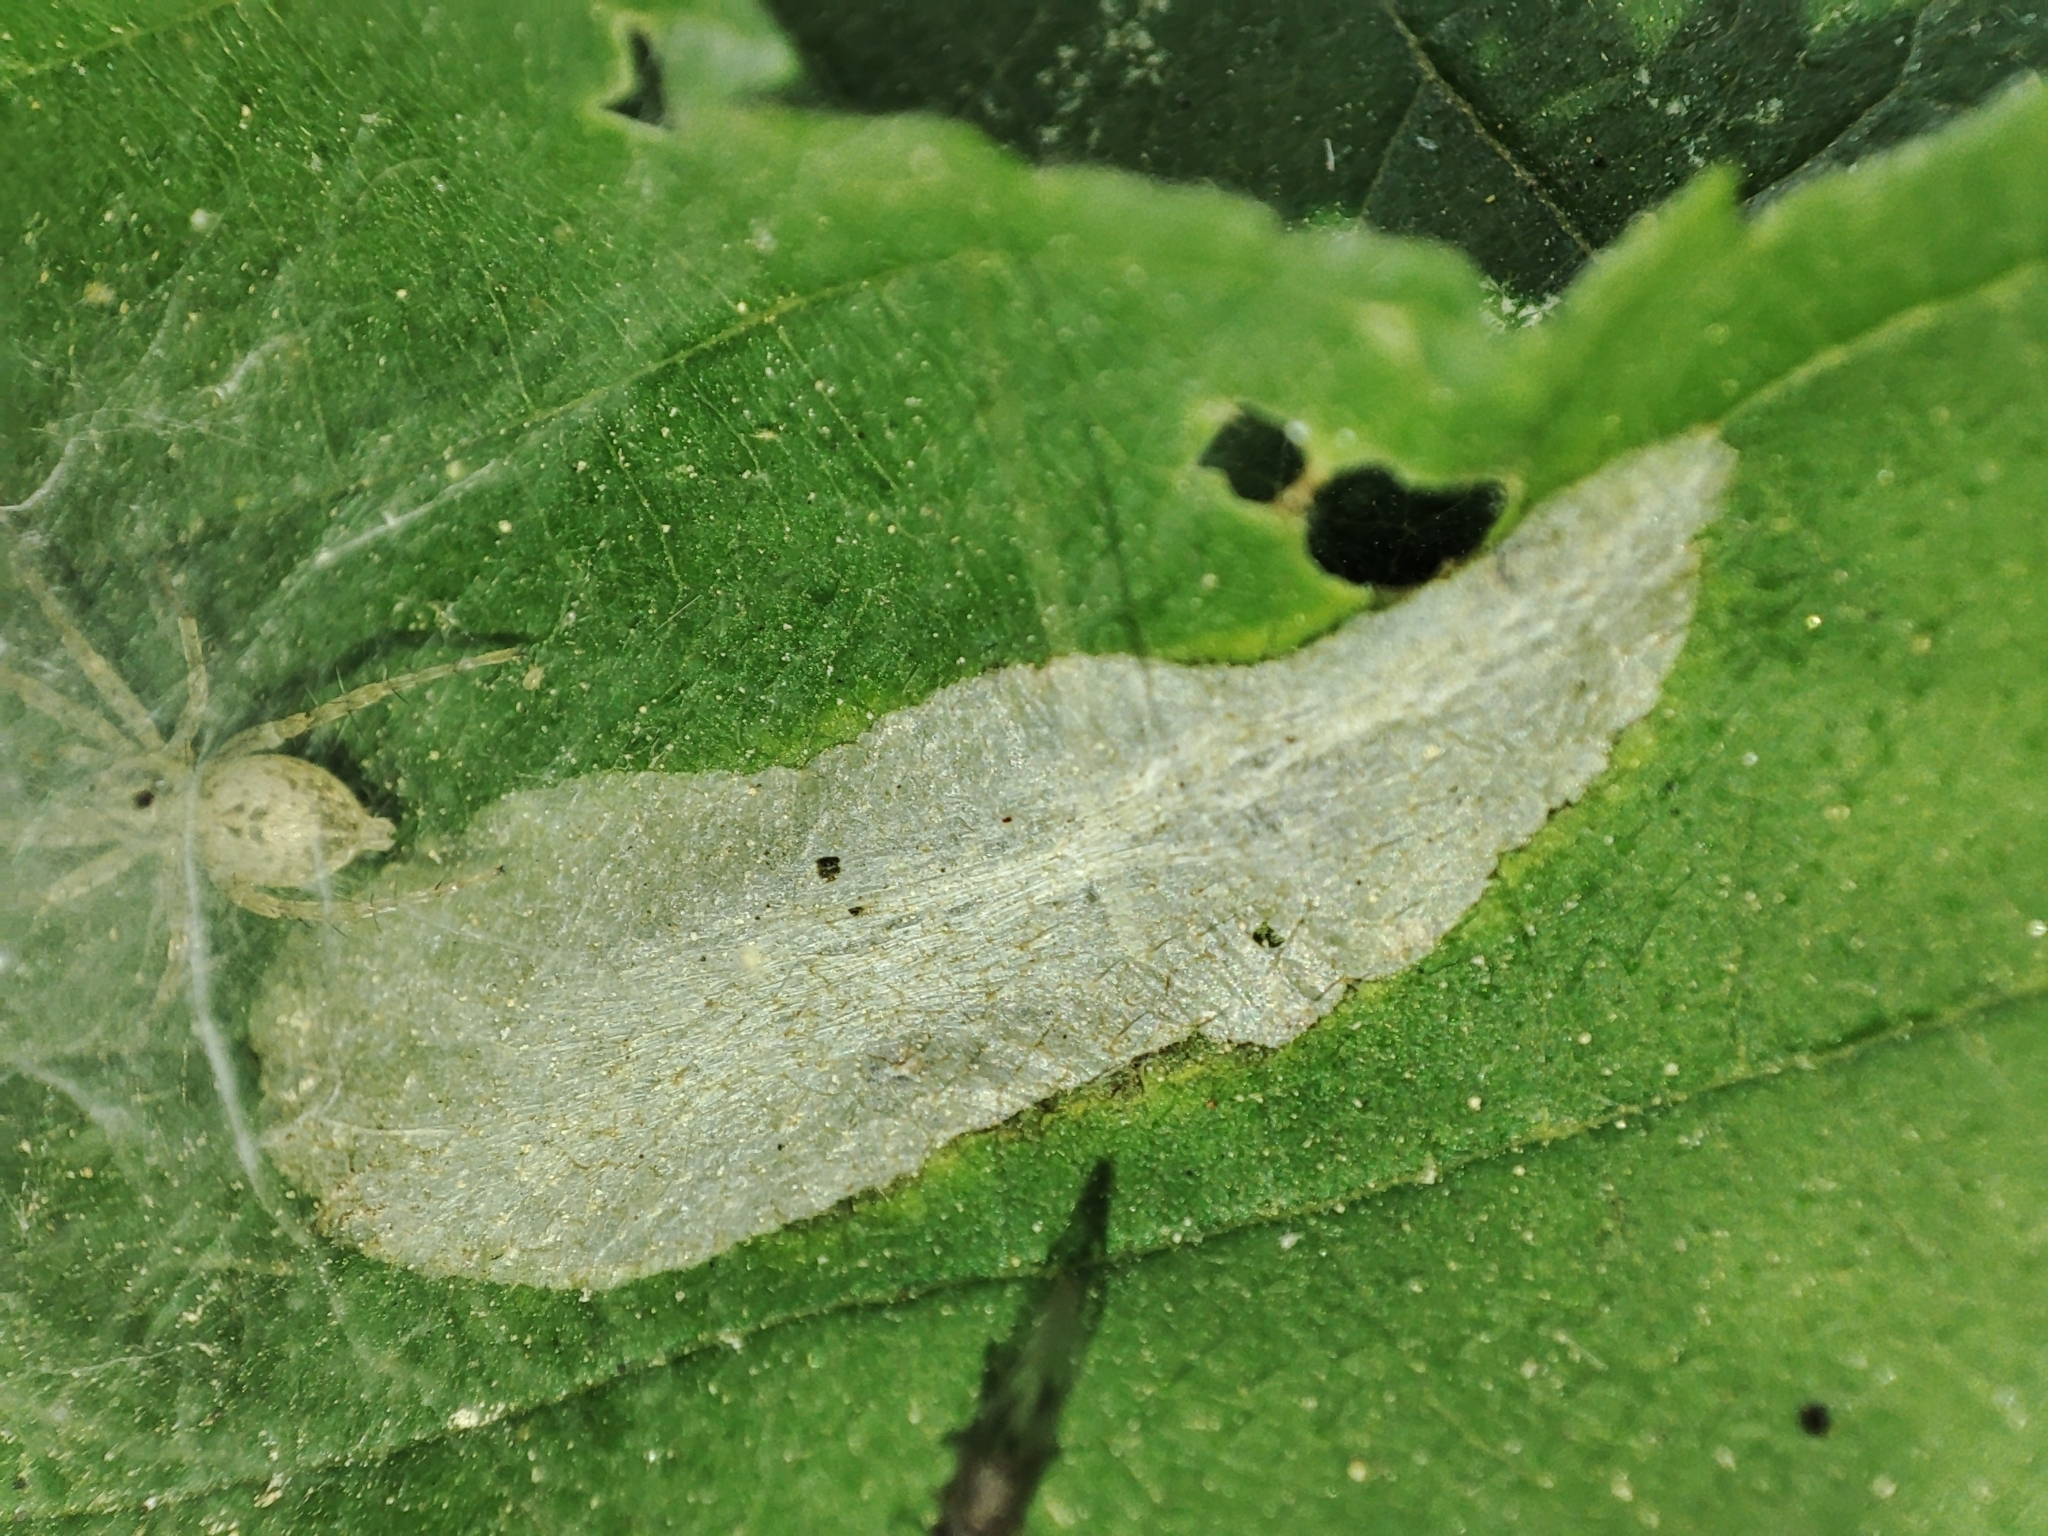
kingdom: Animalia
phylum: Arthropoda
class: Arachnida
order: Araneae
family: Anyphaenidae
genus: Anyphaena
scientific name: Anyphaena accentuata
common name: Buzzing spider
